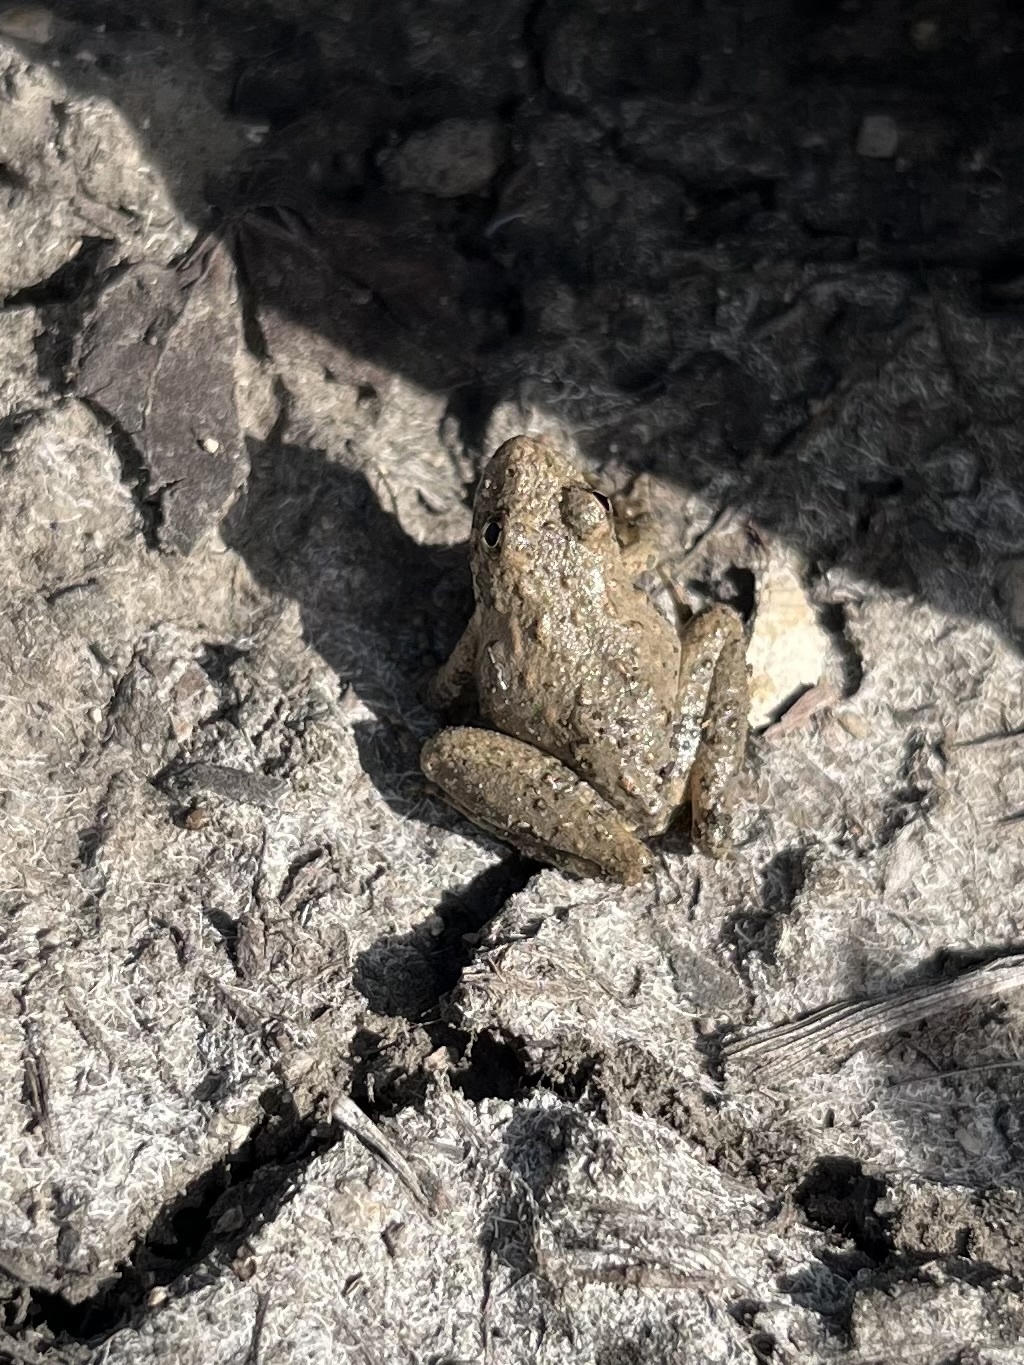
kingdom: Animalia
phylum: Chordata
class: Amphibia
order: Anura
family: Hylidae
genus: Acris
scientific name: Acris blanchardi
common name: Blanchard's cricket frog
